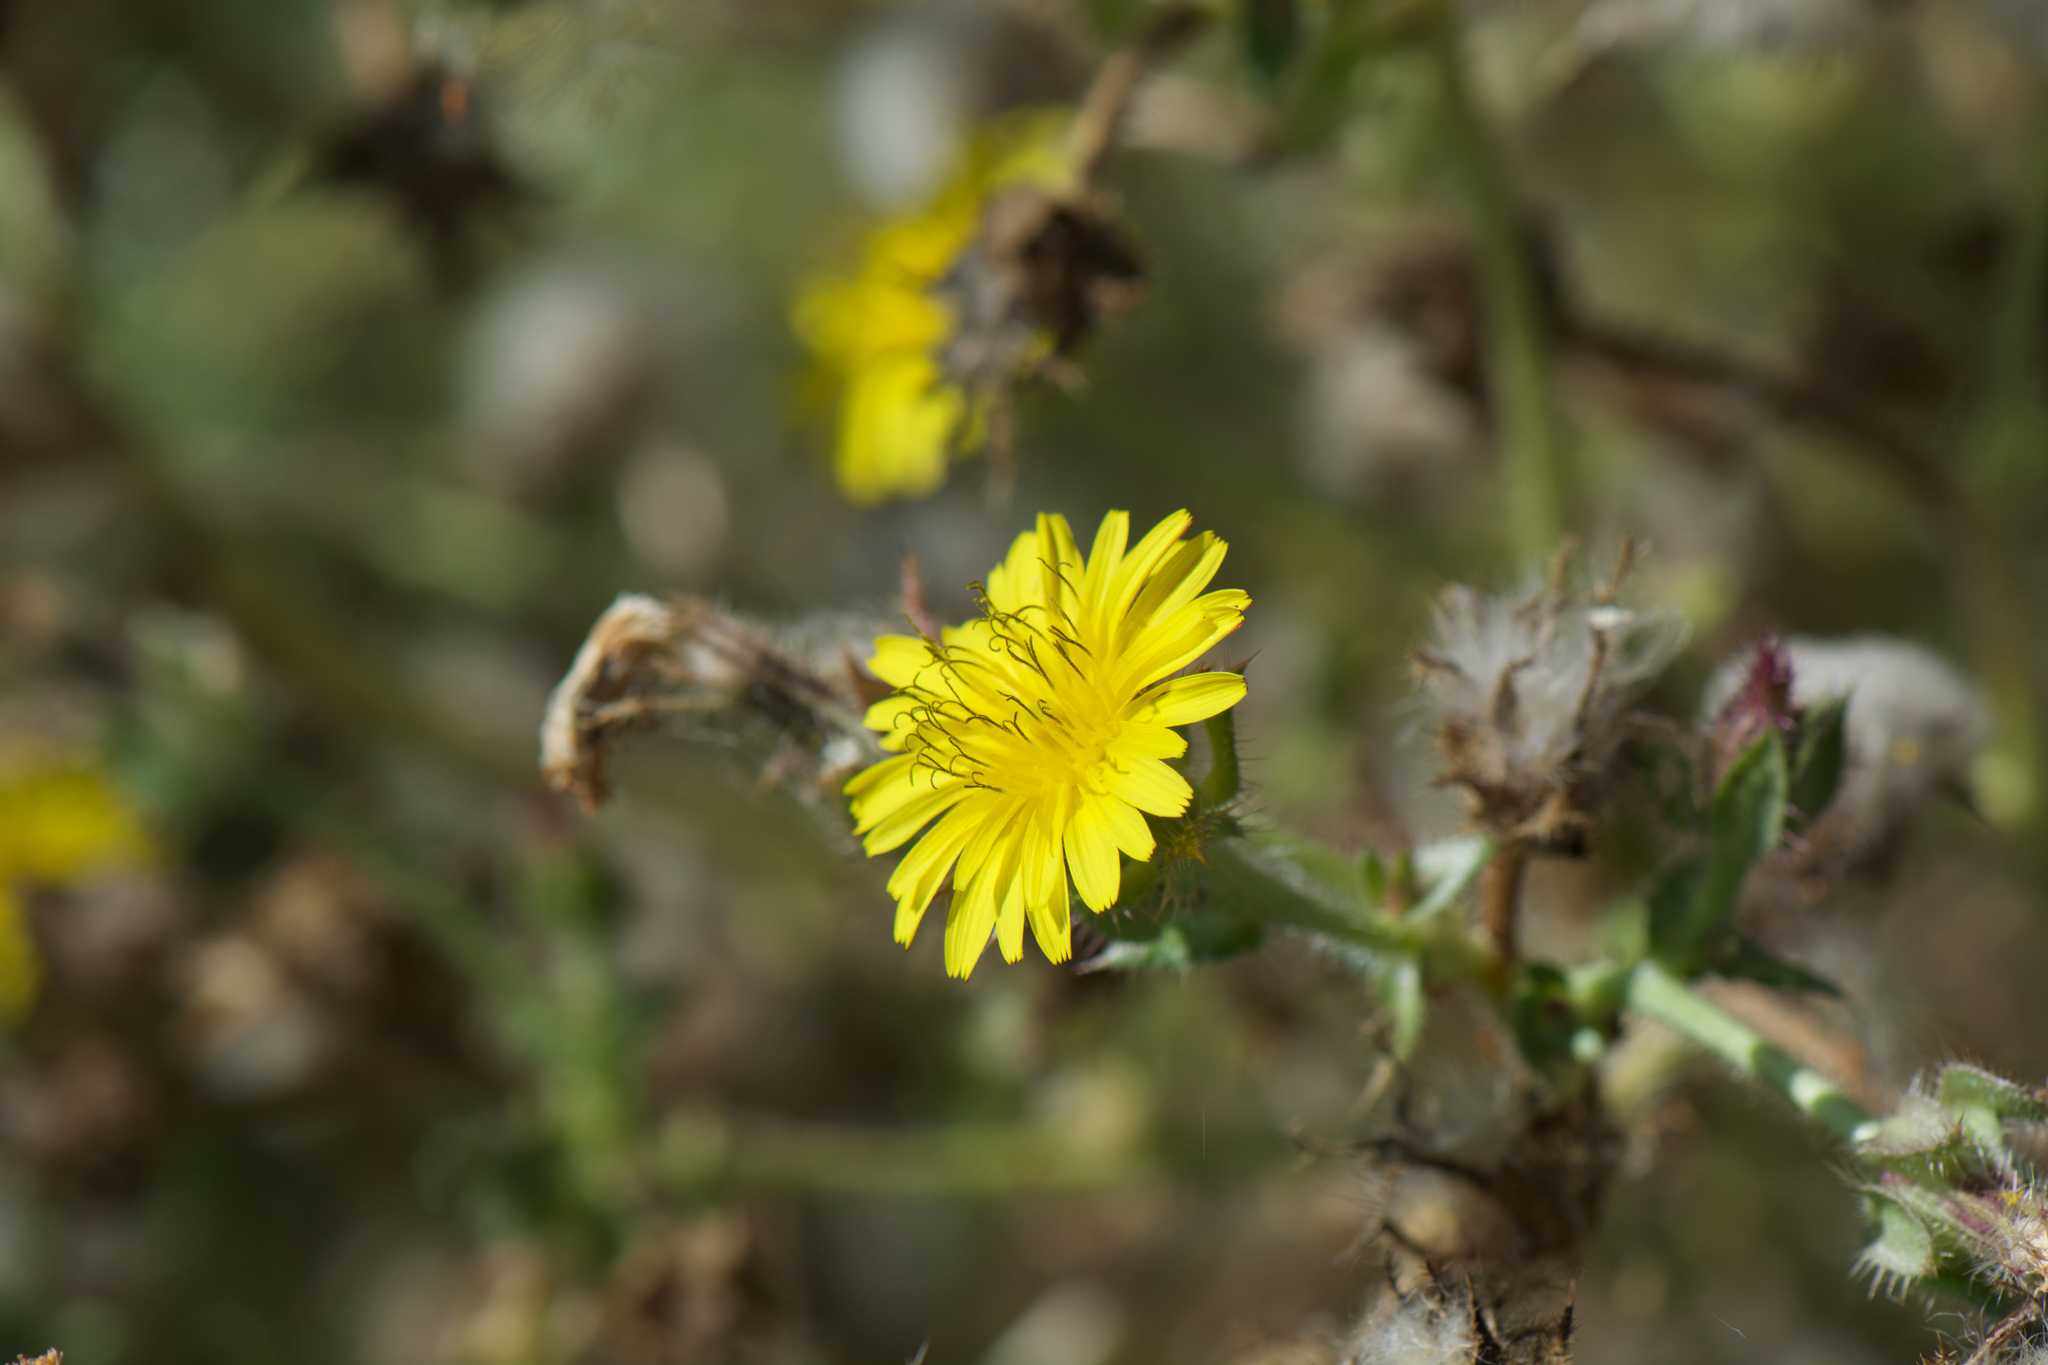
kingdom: Plantae
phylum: Tracheophyta
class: Magnoliopsida
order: Asterales
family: Asteraceae
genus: Helminthotheca
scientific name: Helminthotheca echioides
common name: Ox-tongue
